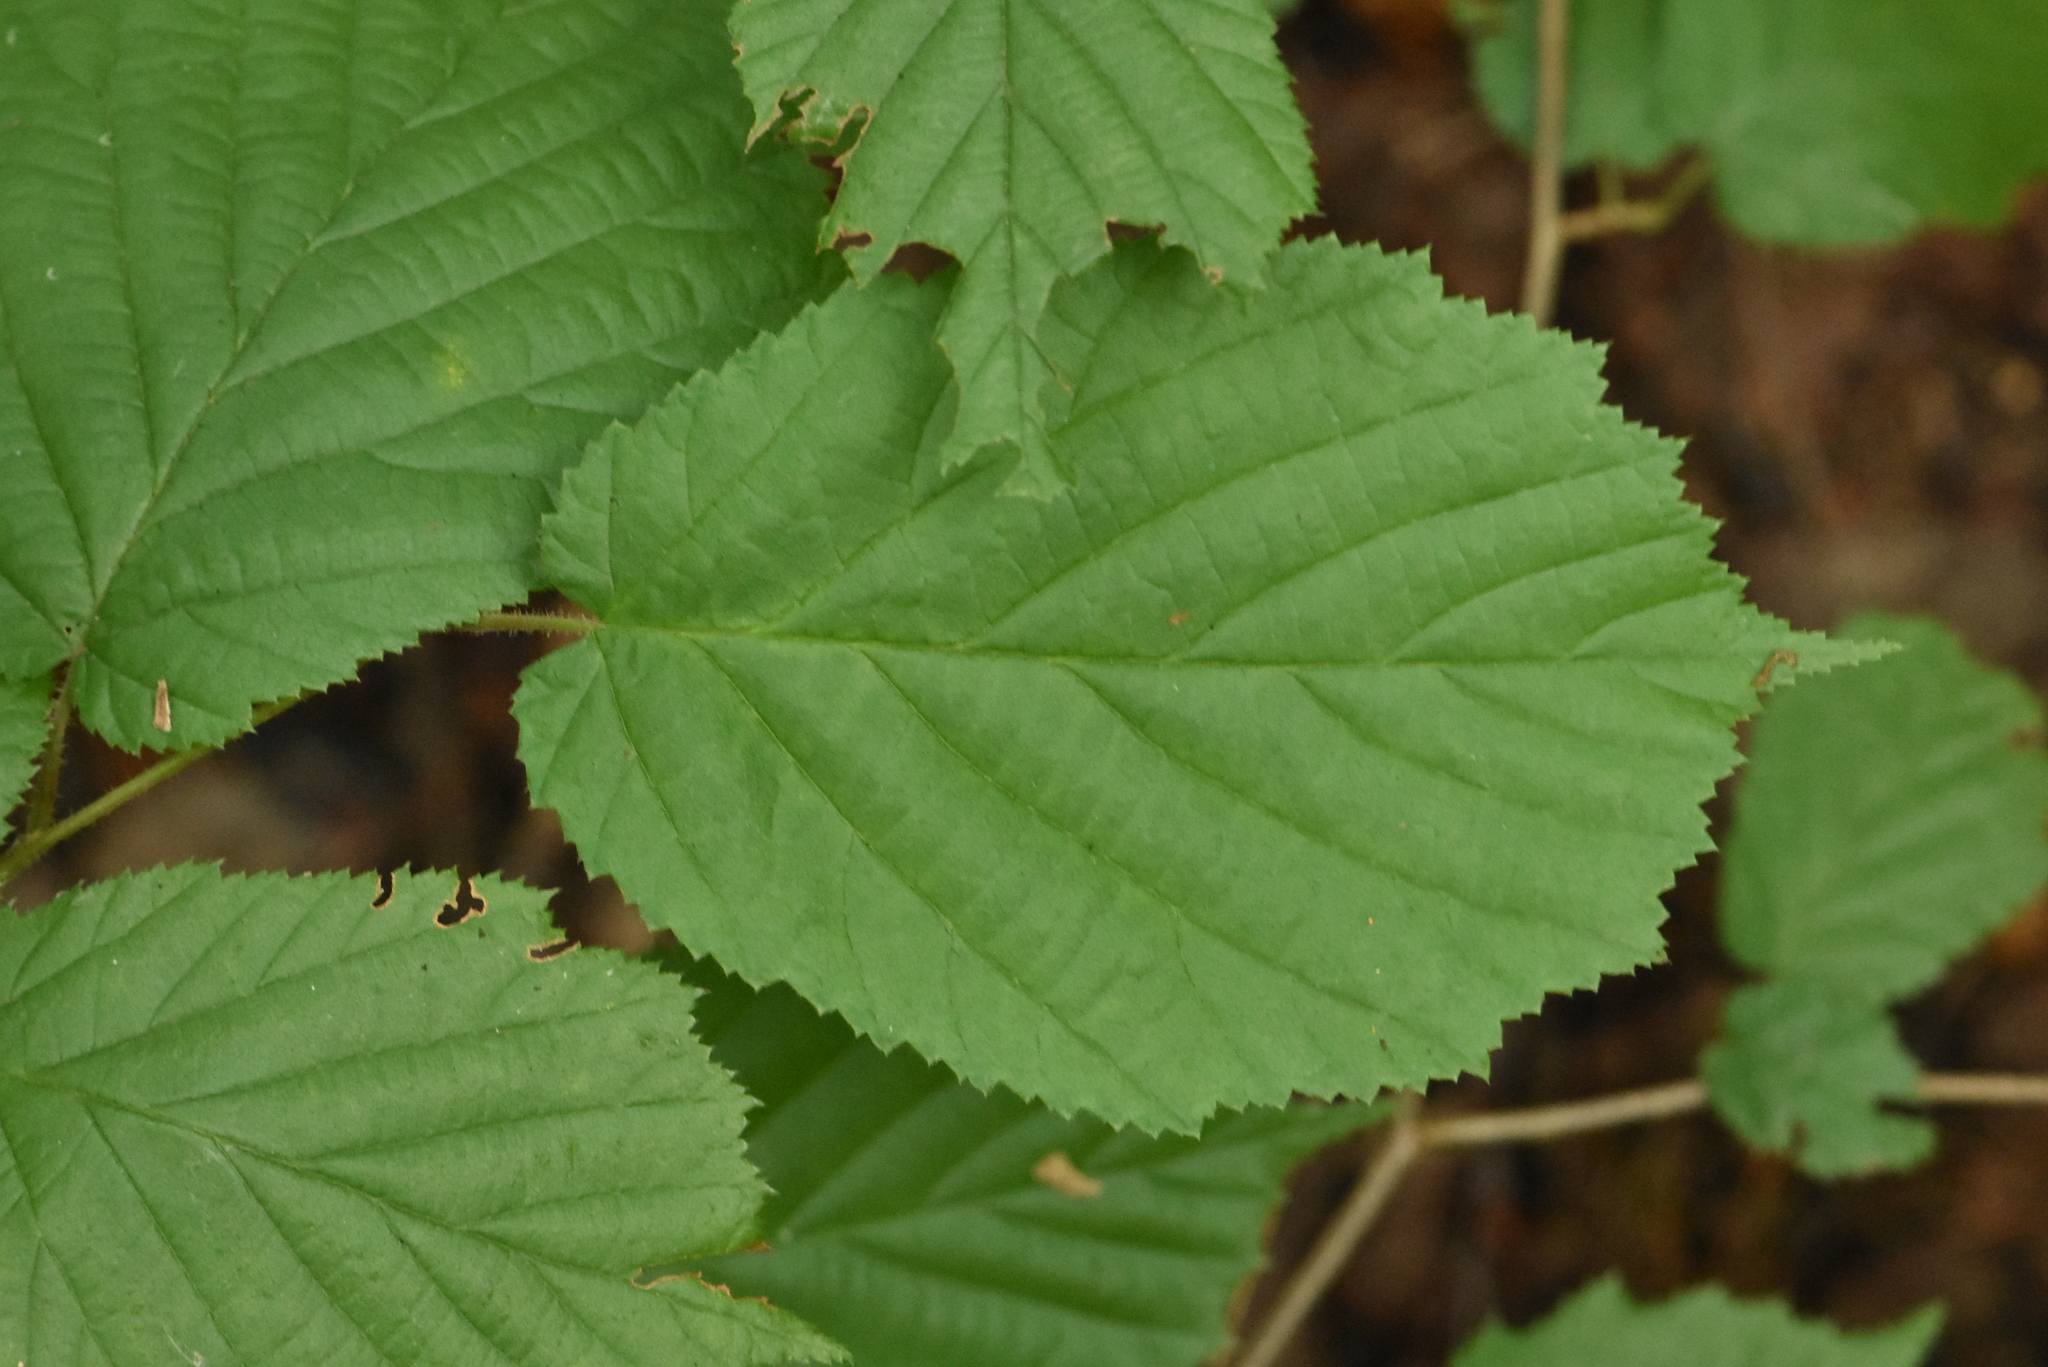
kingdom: Plantae
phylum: Tracheophyta
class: Magnoliopsida
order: Fagales
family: Betulaceae
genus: Corylus
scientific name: Corylus avellana
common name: European hazel
